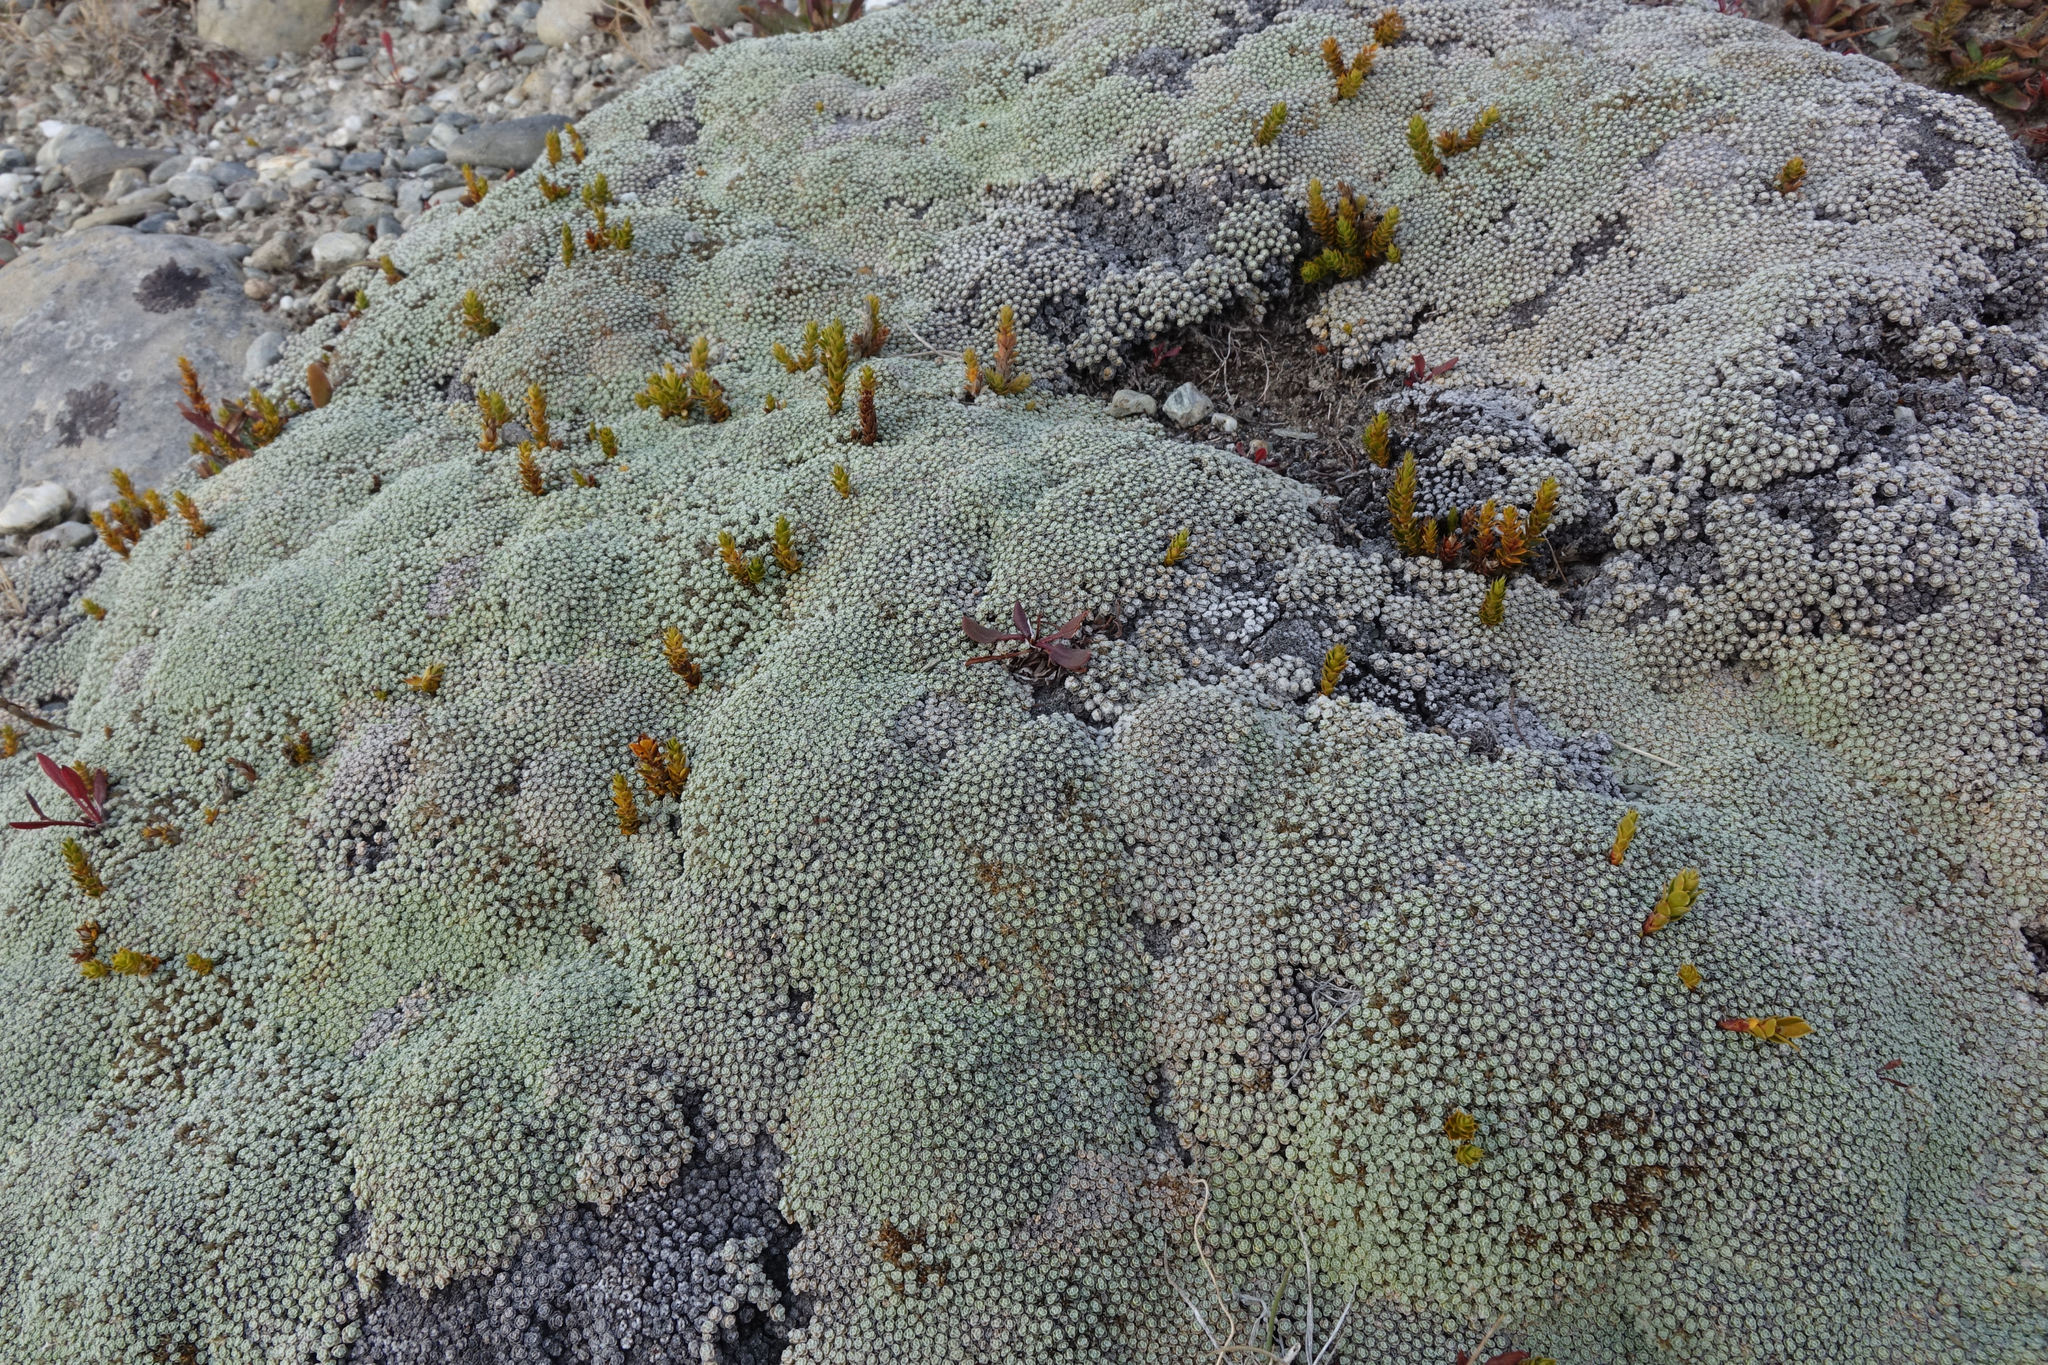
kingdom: Plantae
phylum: Tracheophyta
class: Magnoliopsida
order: Asterales
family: Asteraceae
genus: Raoulia
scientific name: Raoulia australis
